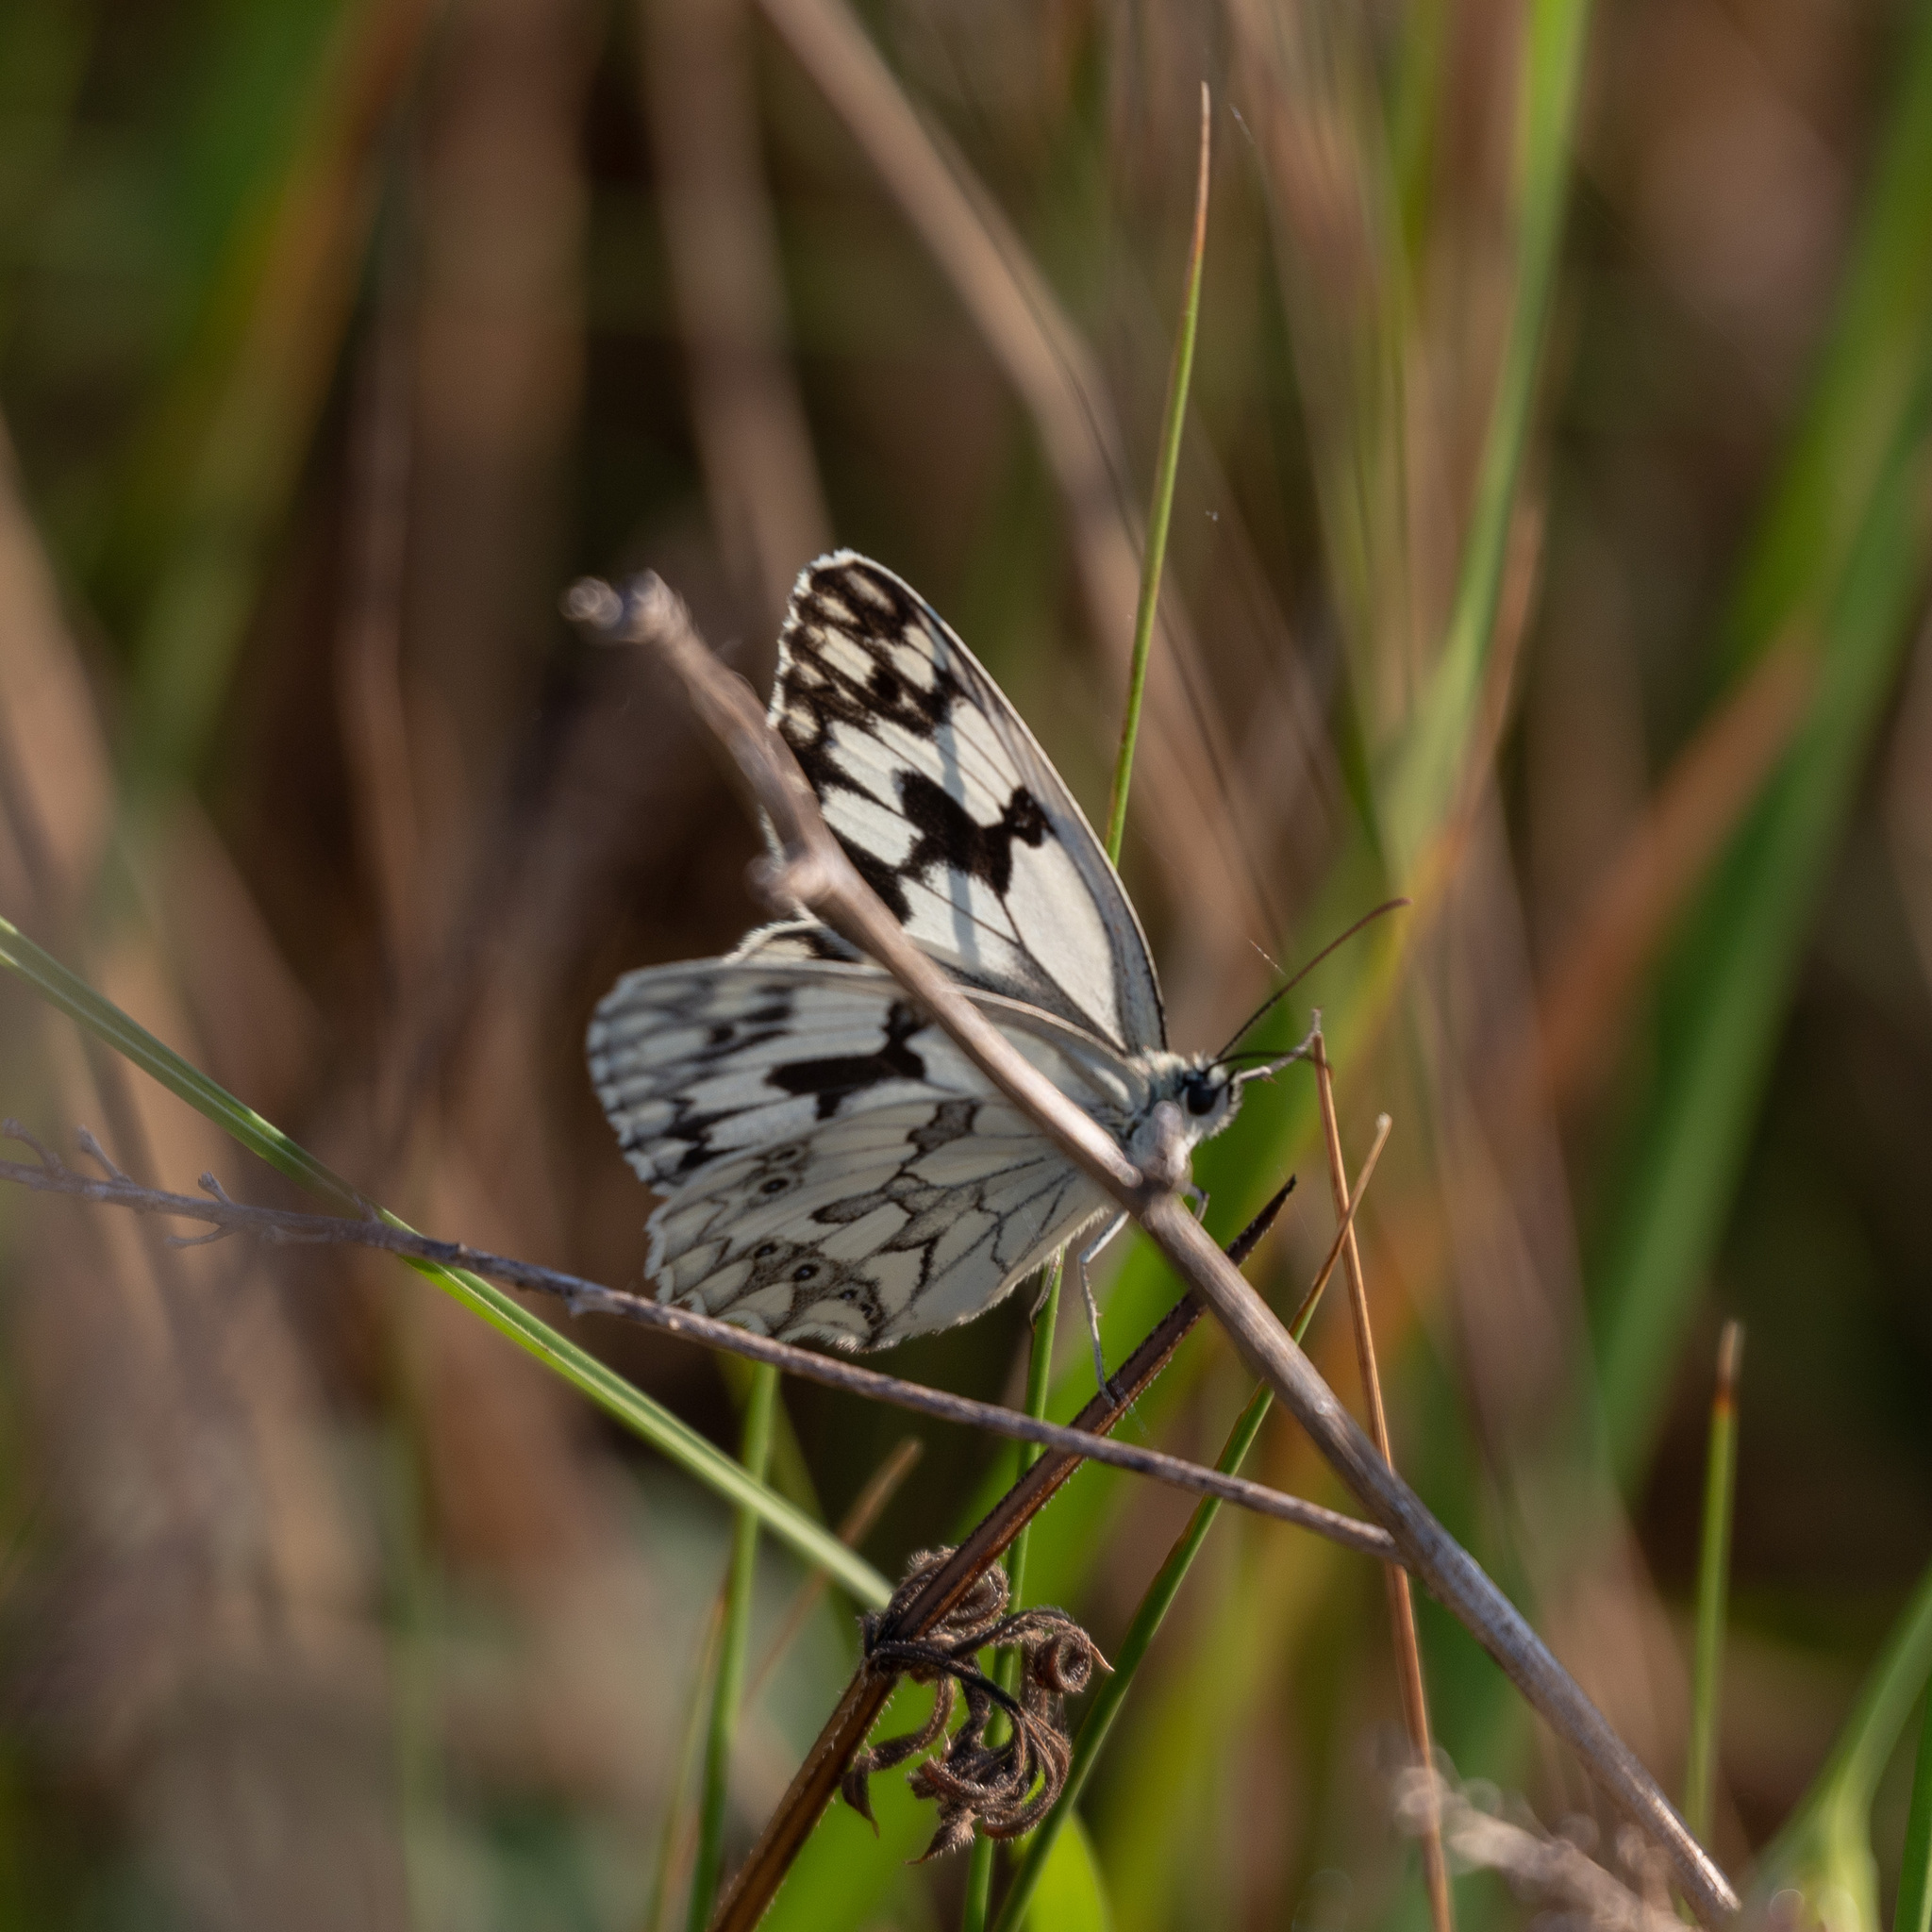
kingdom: Animalia
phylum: Arthropoda
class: Insecta
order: Lepidoptera
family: Nymphalidae
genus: Melanargia
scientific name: Melanargia lachesis
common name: Iberian marbled white
